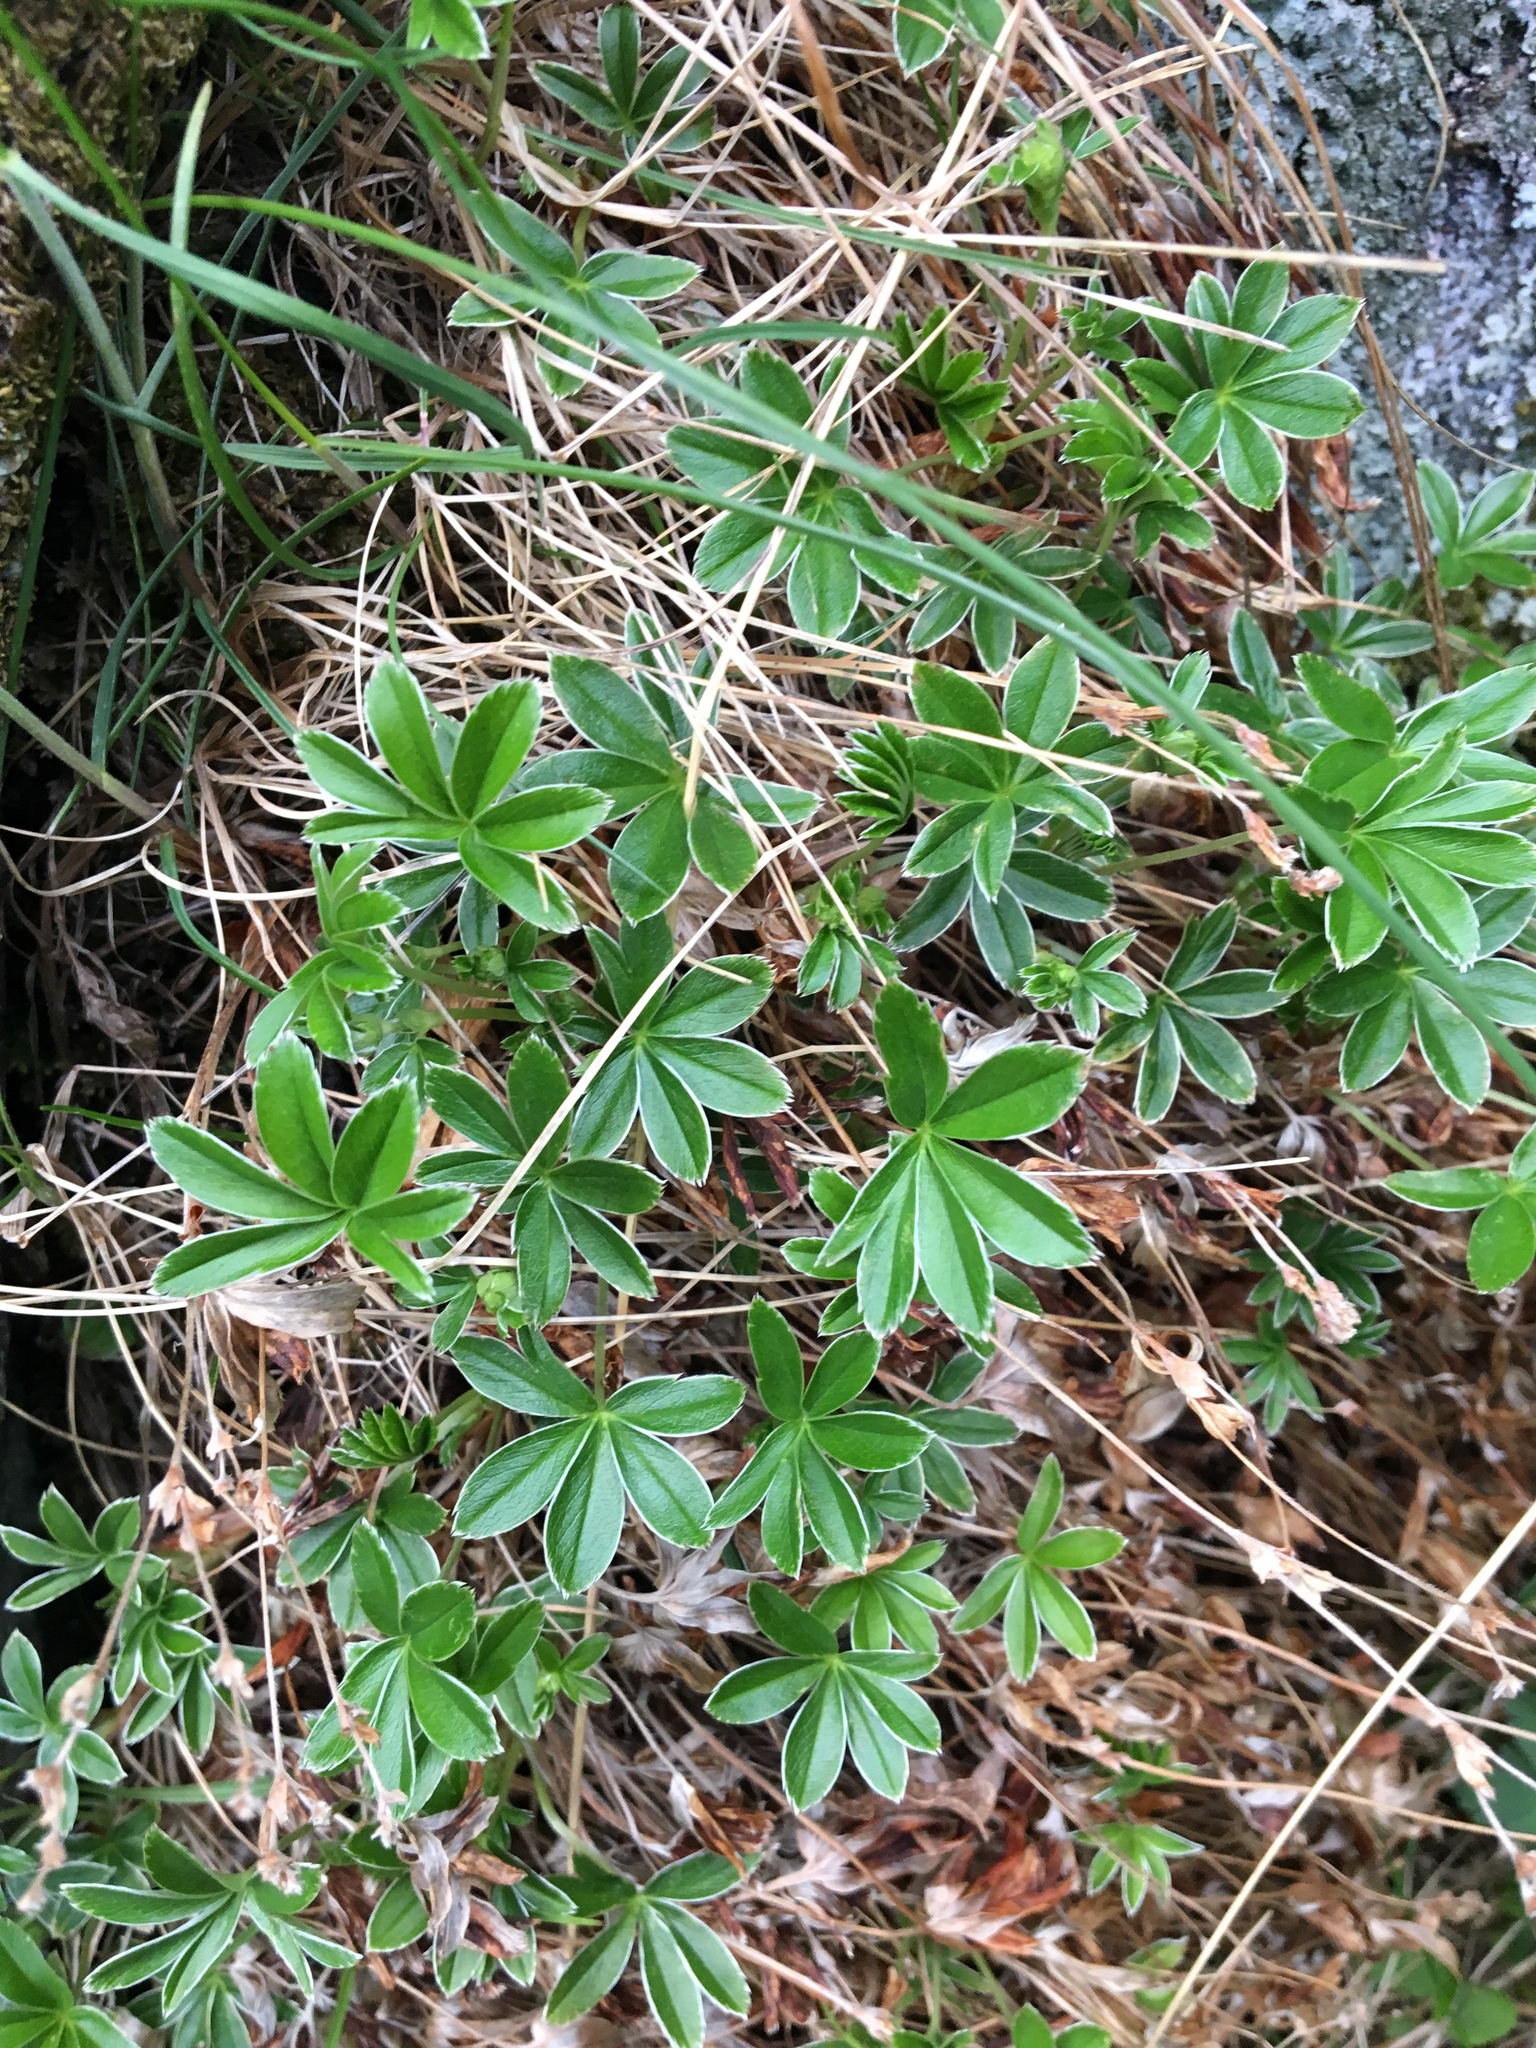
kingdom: Plantae
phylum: Tracheophyta
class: Magnoliopsida
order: Rosales
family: Rosaceae
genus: Alchemilla
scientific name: Alchemilla alpina
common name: Alpine lady's-mantle
